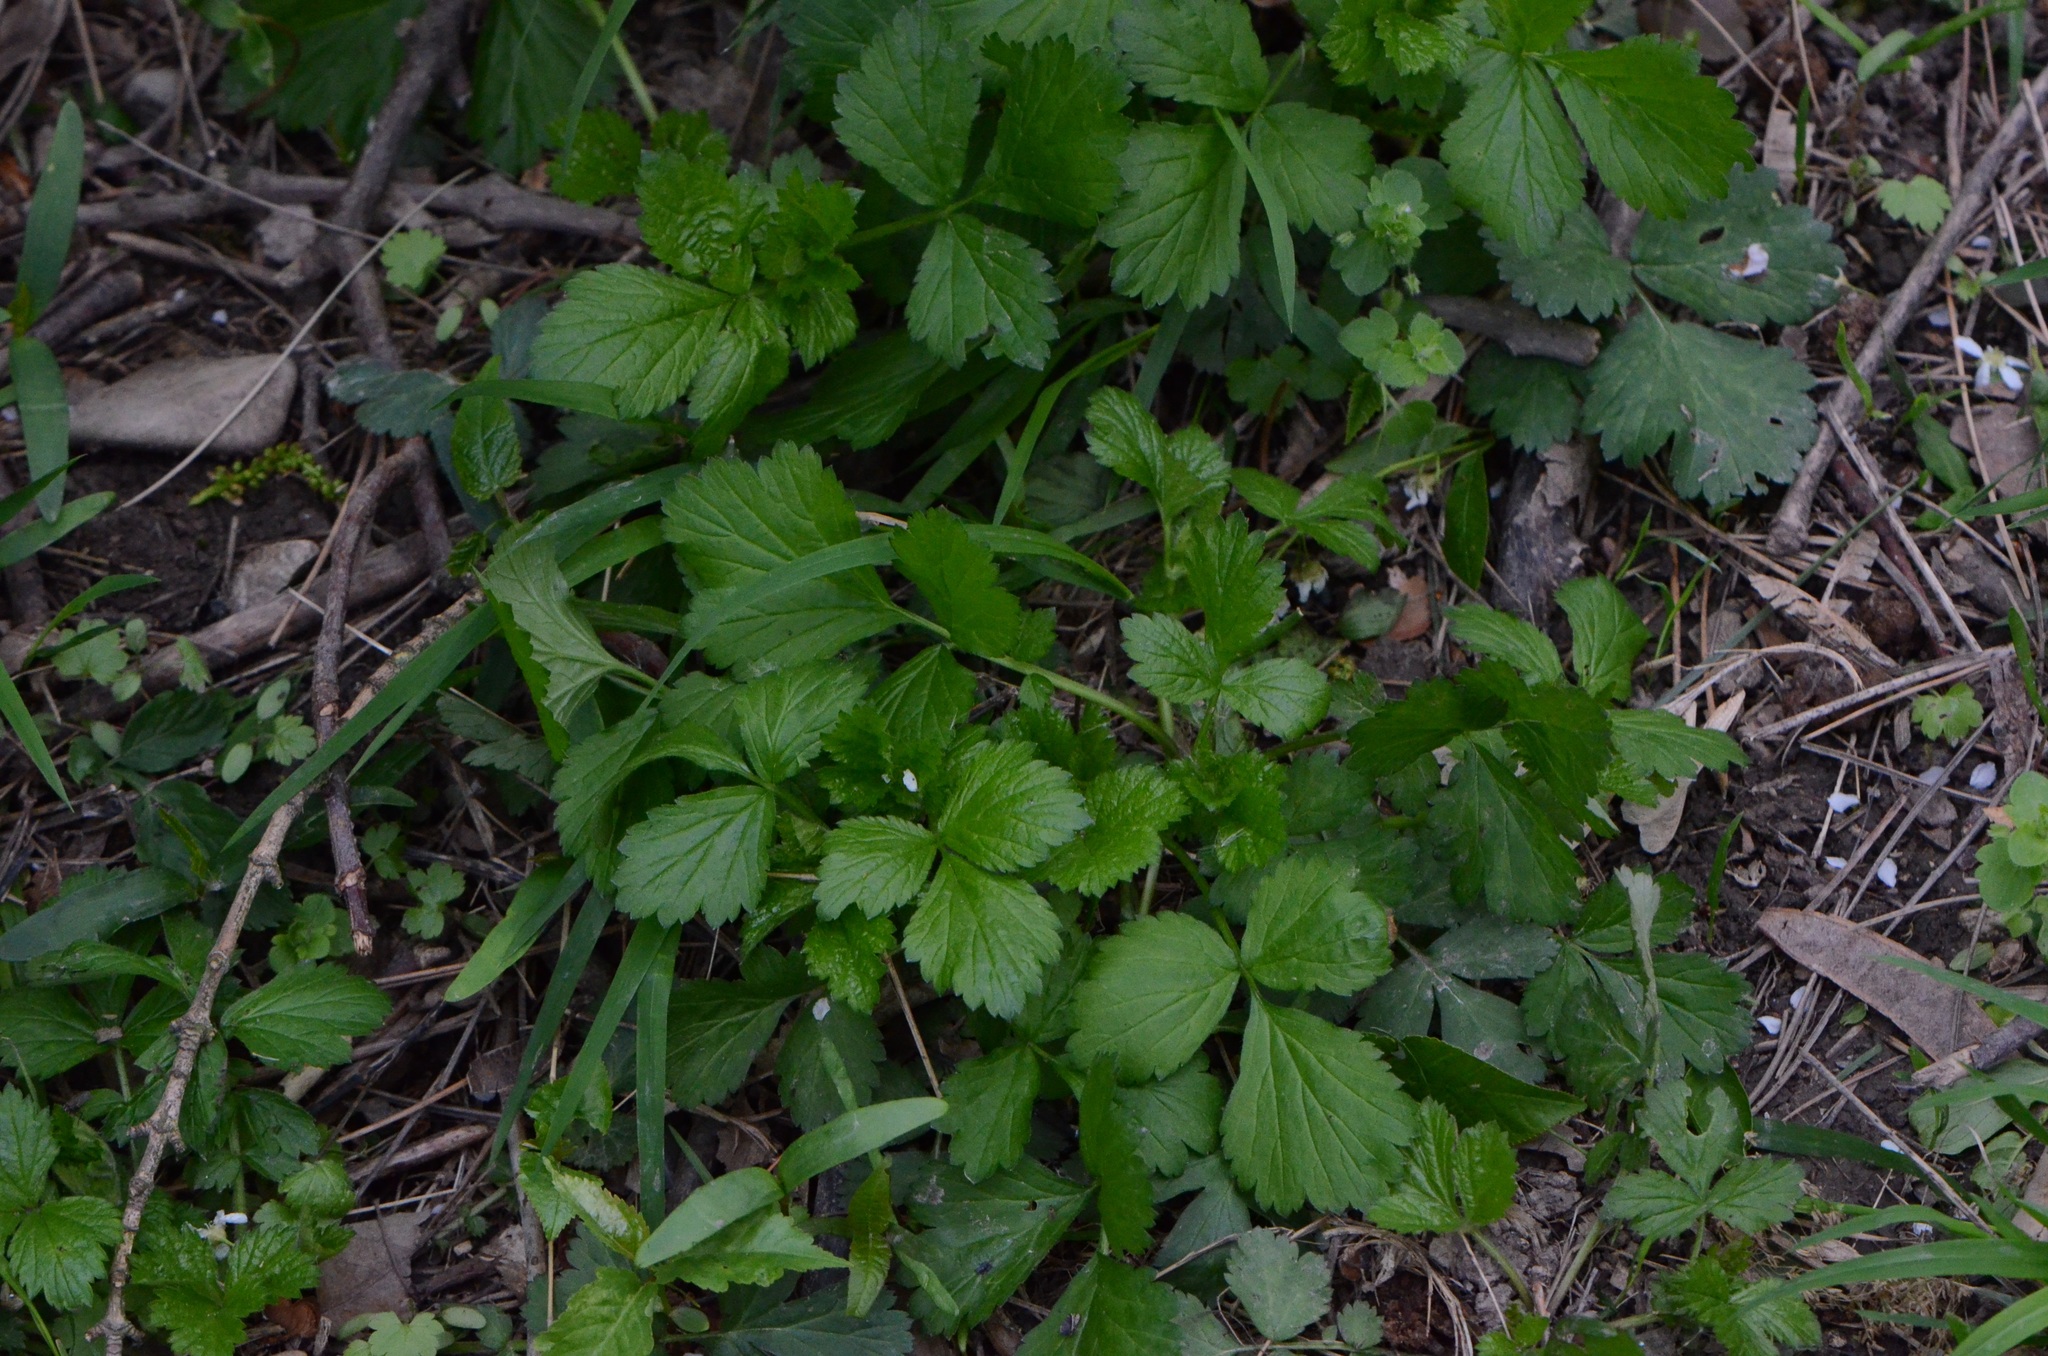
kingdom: Plantae
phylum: Tracheophyta
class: Magnoliopsida
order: Rosales
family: Rosaceae
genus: Geum
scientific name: Geum urbanum
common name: Wood avens
